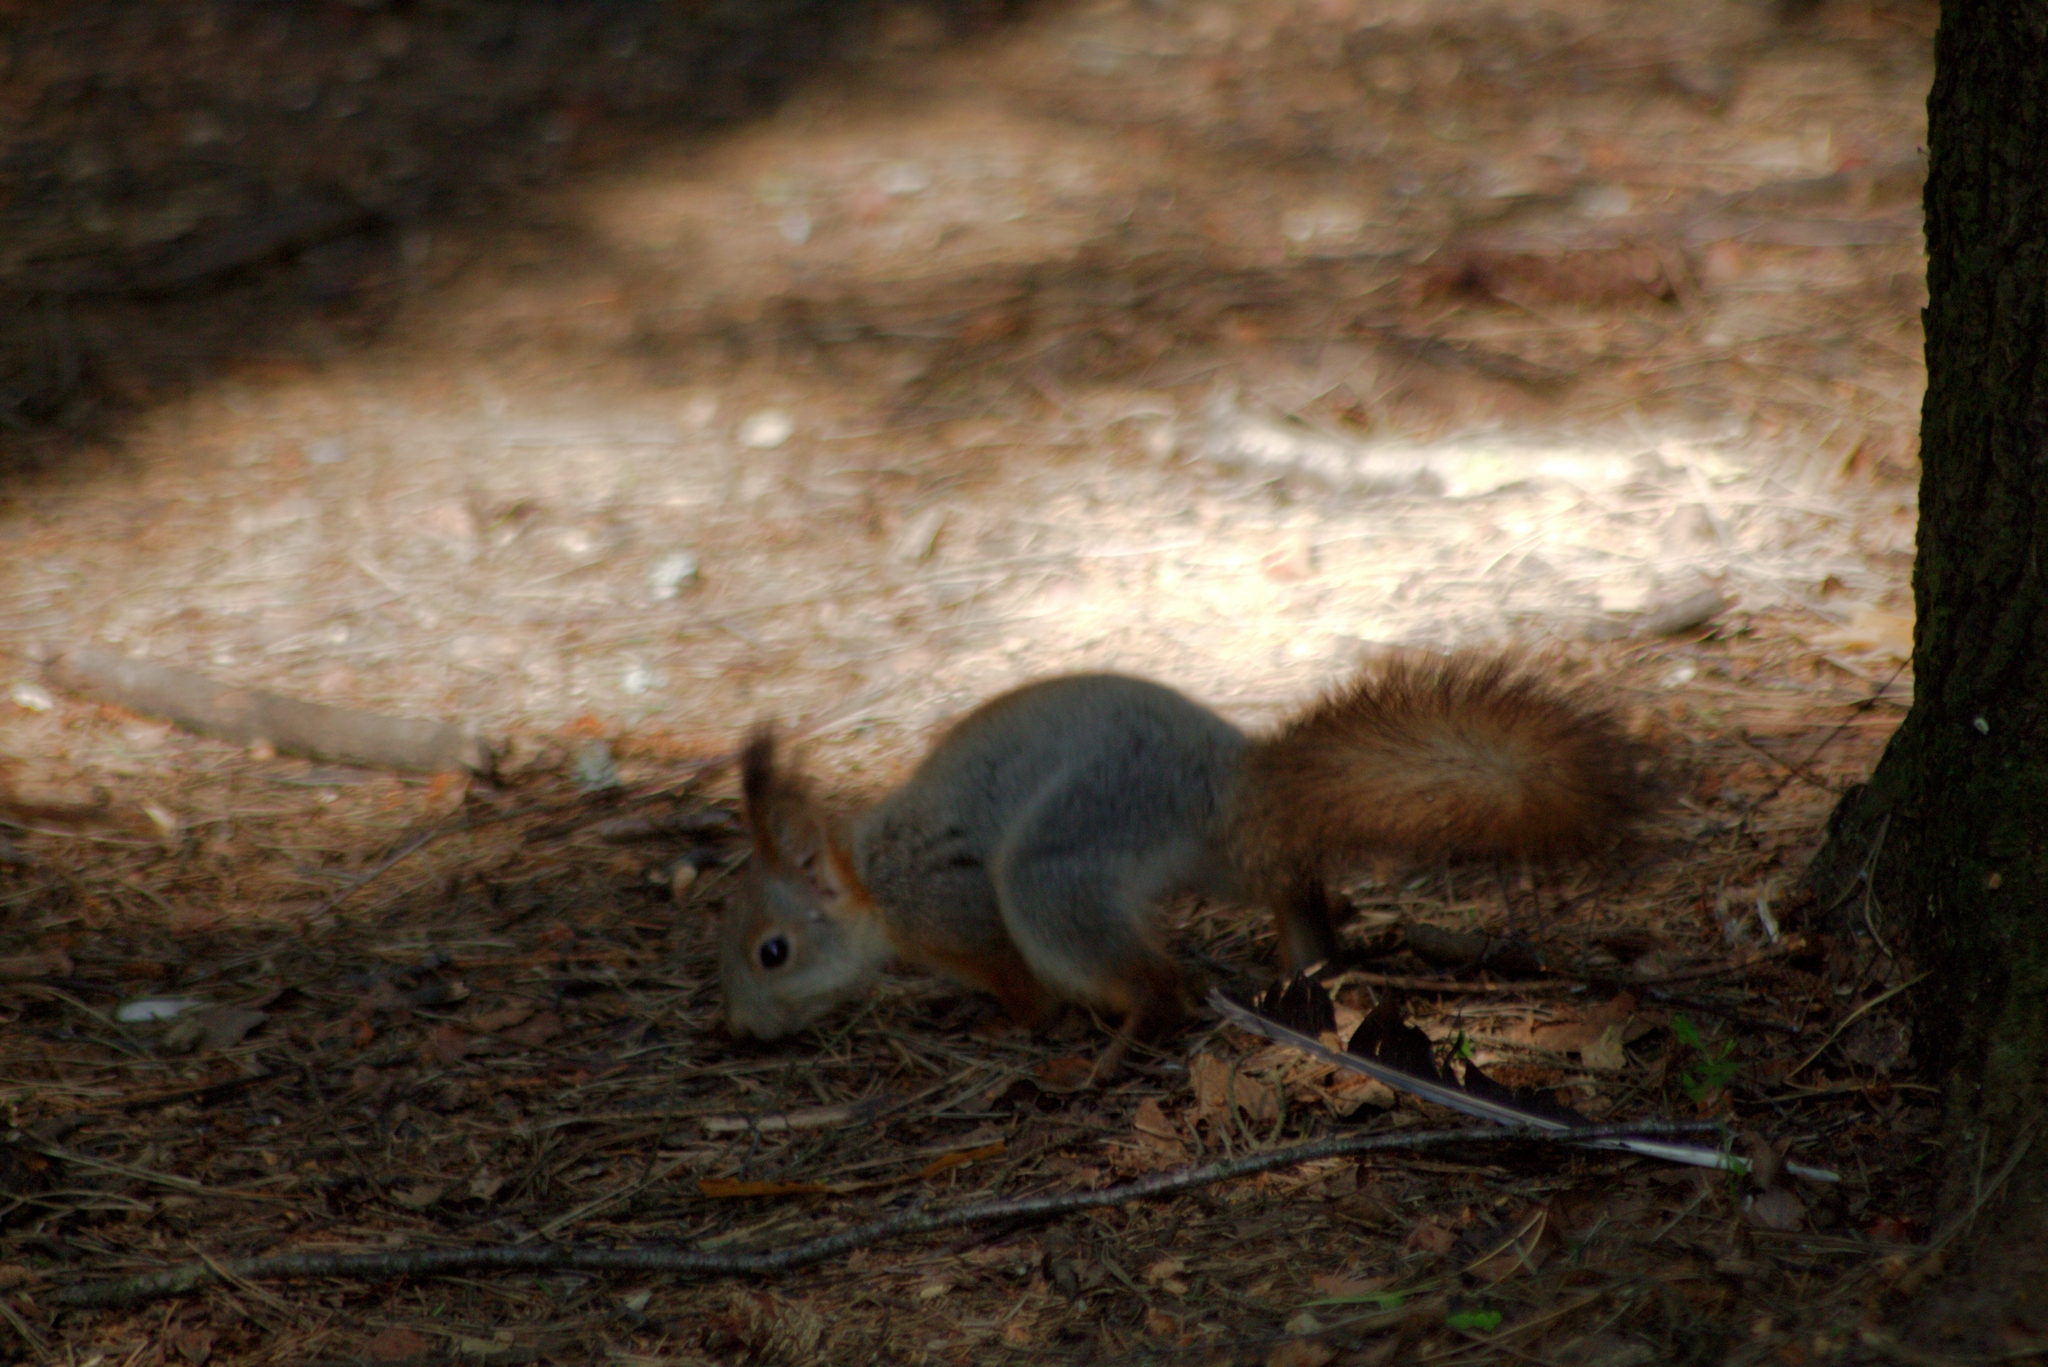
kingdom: Animalia
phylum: Chordata
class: Mammalia
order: Rodentia
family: Sciuridae
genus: Sciurus
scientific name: Sciurus vulgaris
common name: Eurasian red squirrel
